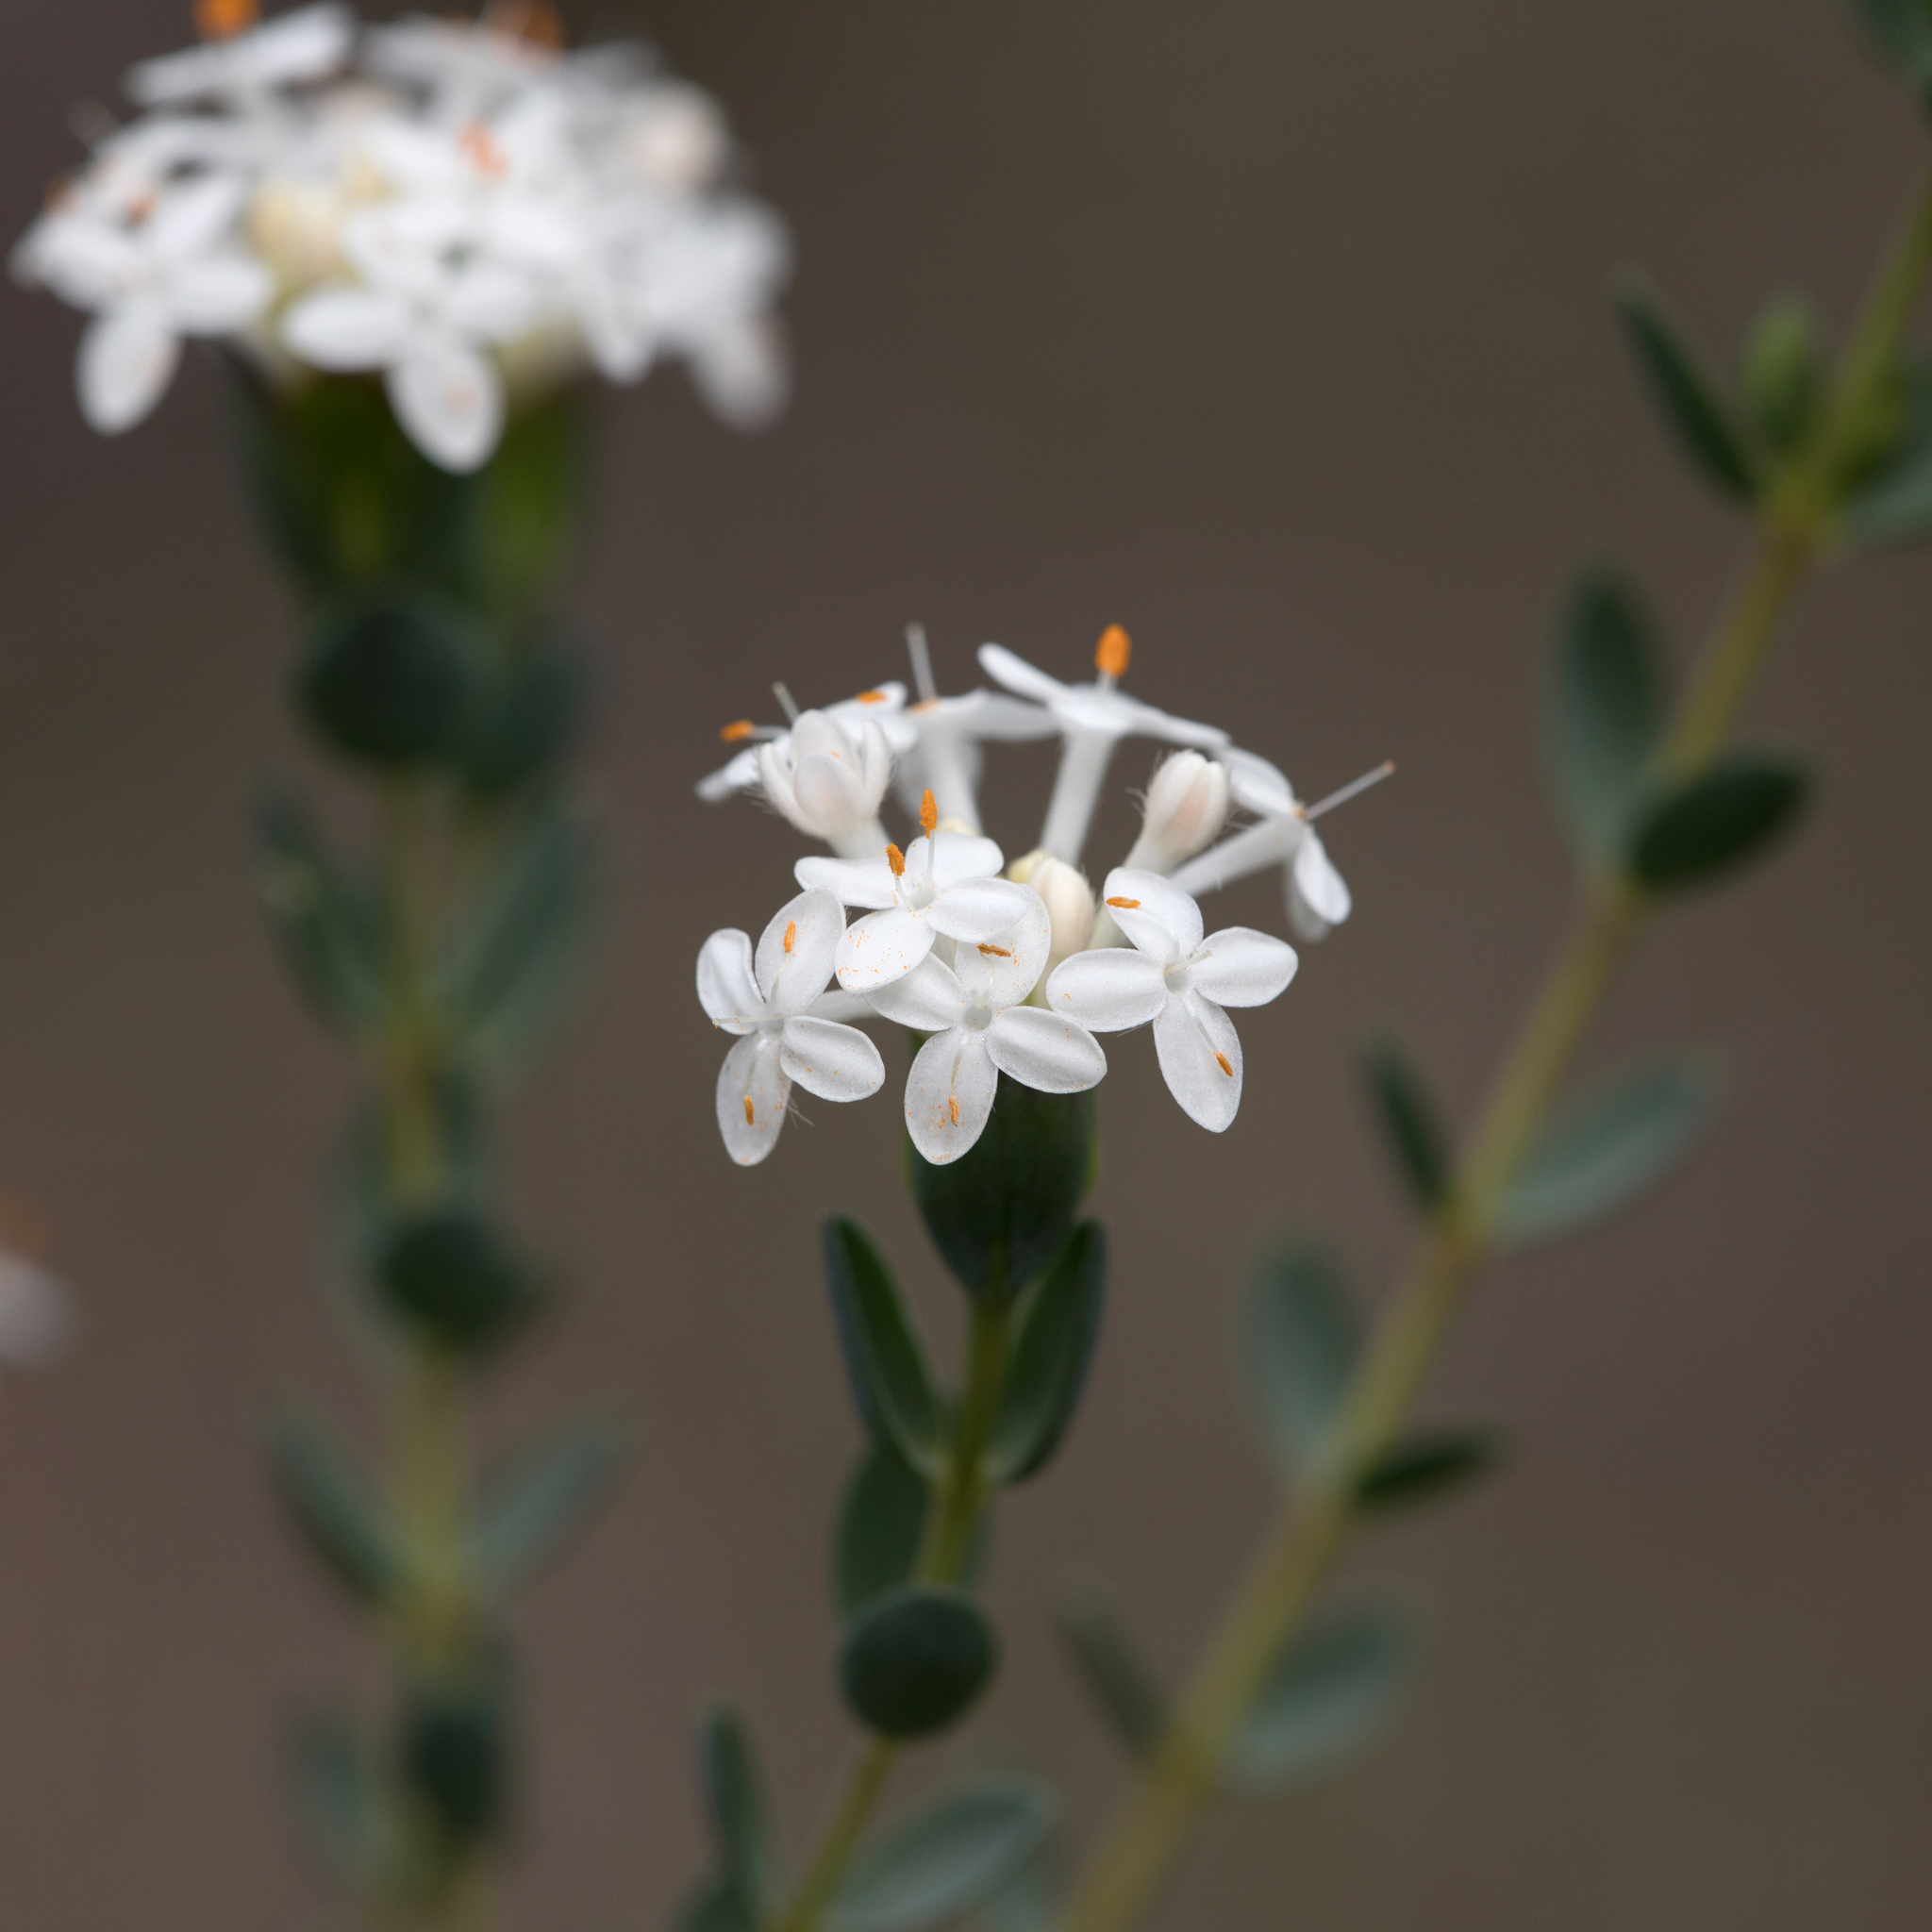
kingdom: Plantae
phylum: Tracheophyta
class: Magnoliopsida
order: Malvales
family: Thymelaeaceae
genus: Pimelea
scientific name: Pimelea glauca
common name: Smooth riceflower
